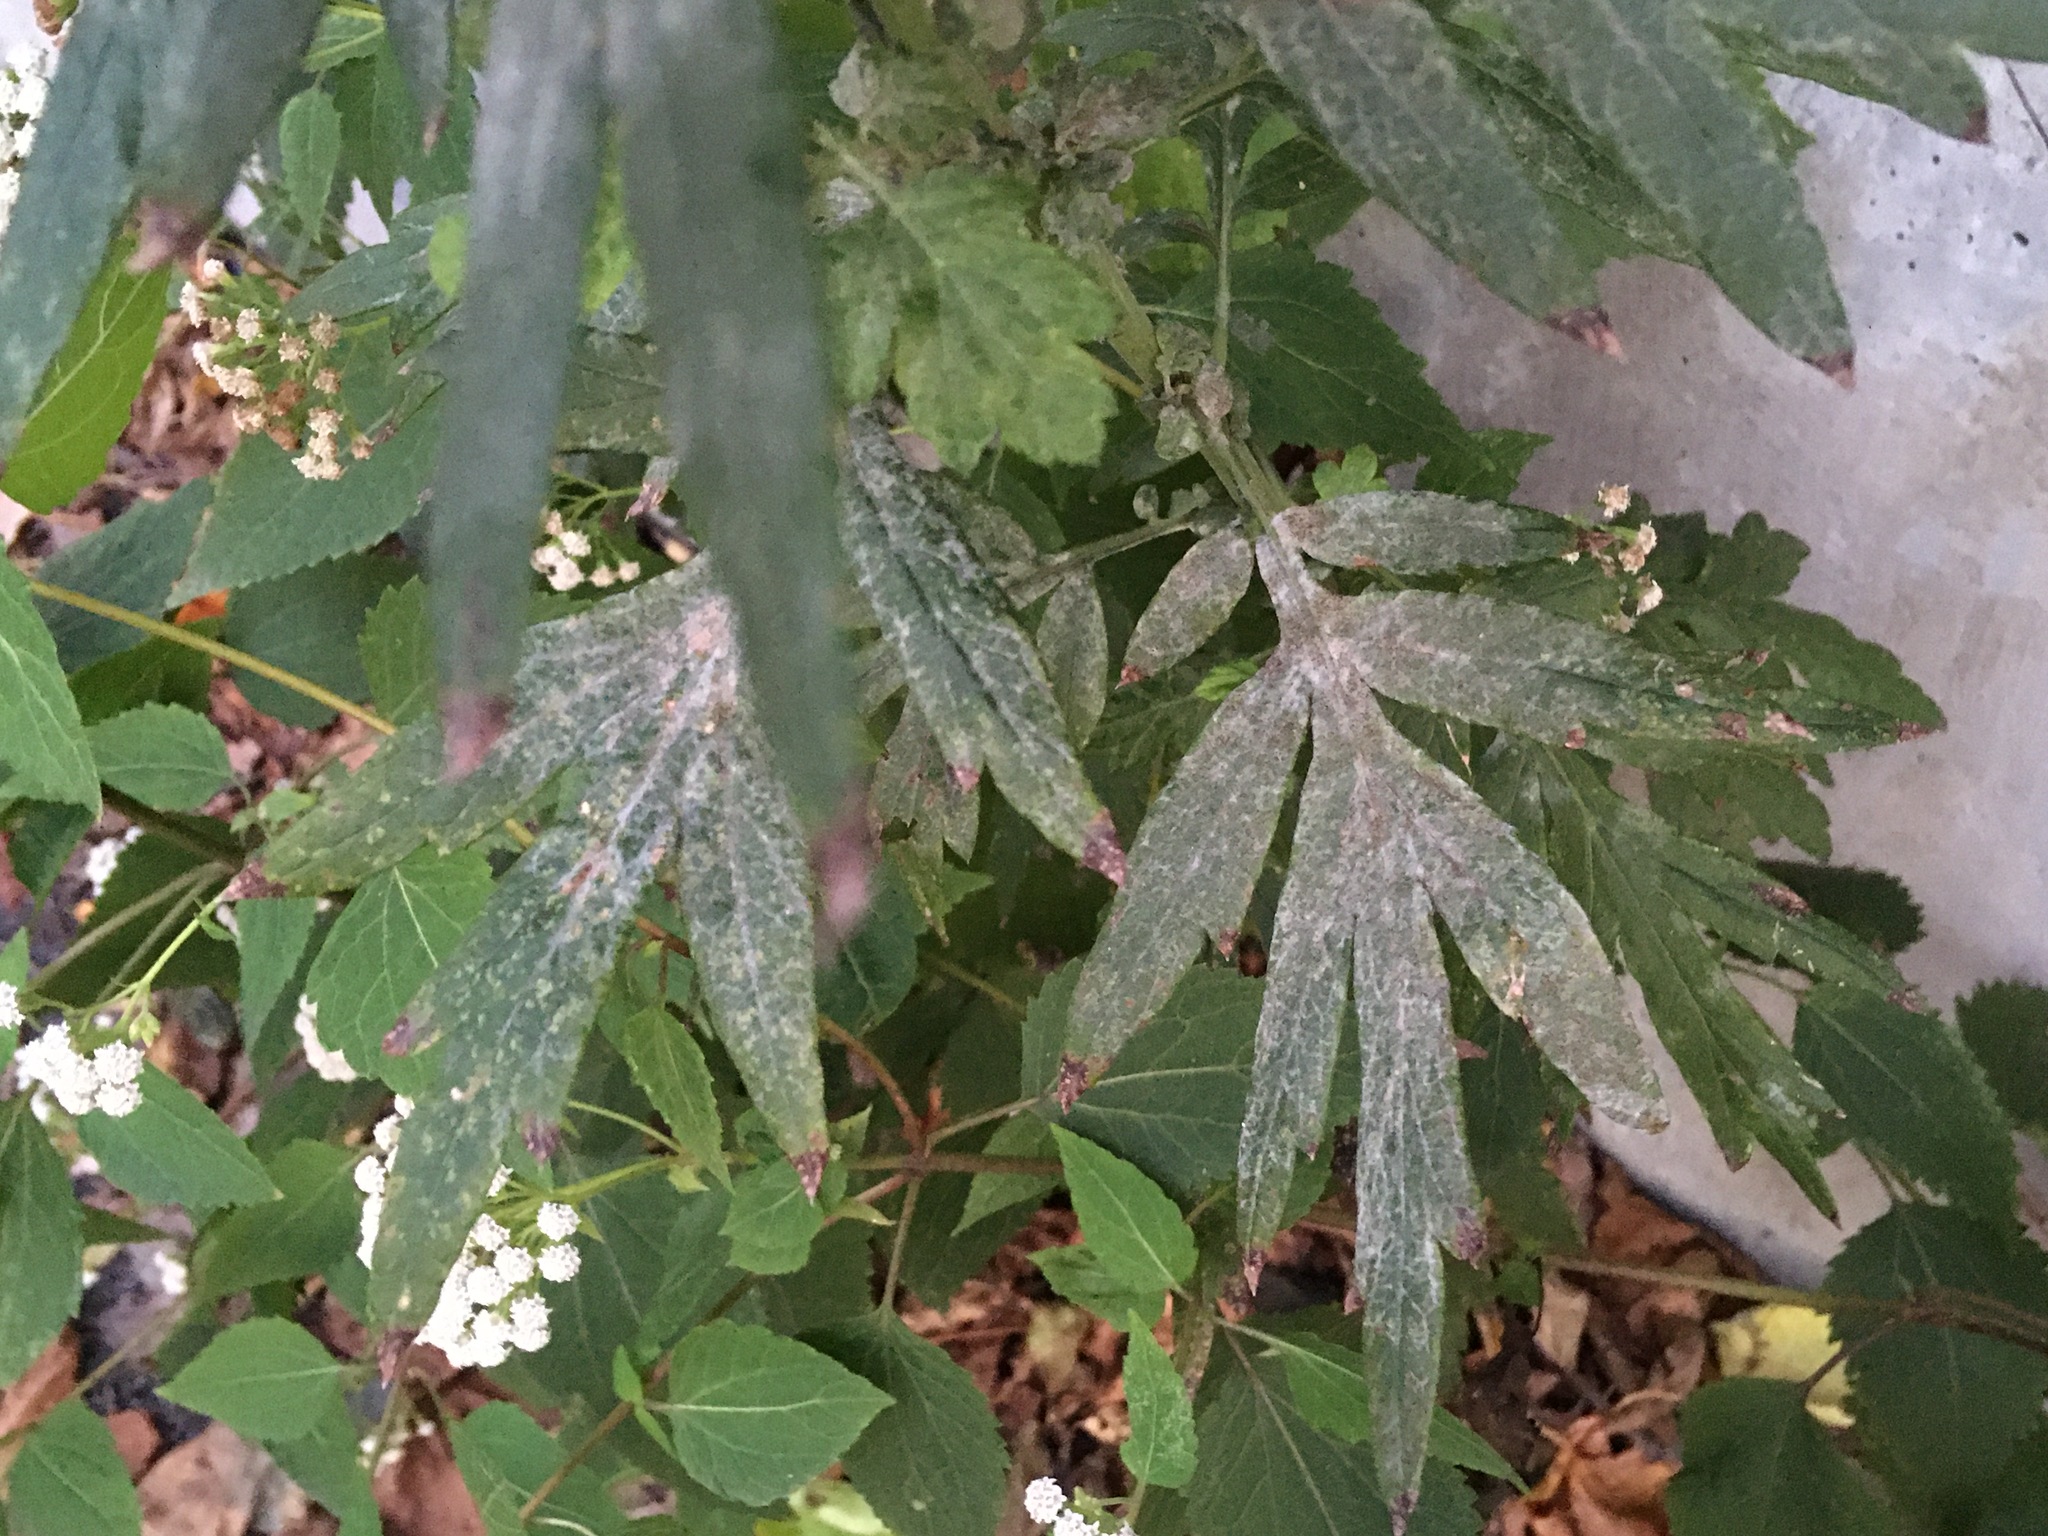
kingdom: Plantae
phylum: Tracheophyta
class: Magnoliopsida
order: Asterales
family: Asteraceae
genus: Artemisia
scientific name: Artemisia vulgaris
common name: Mugwort
